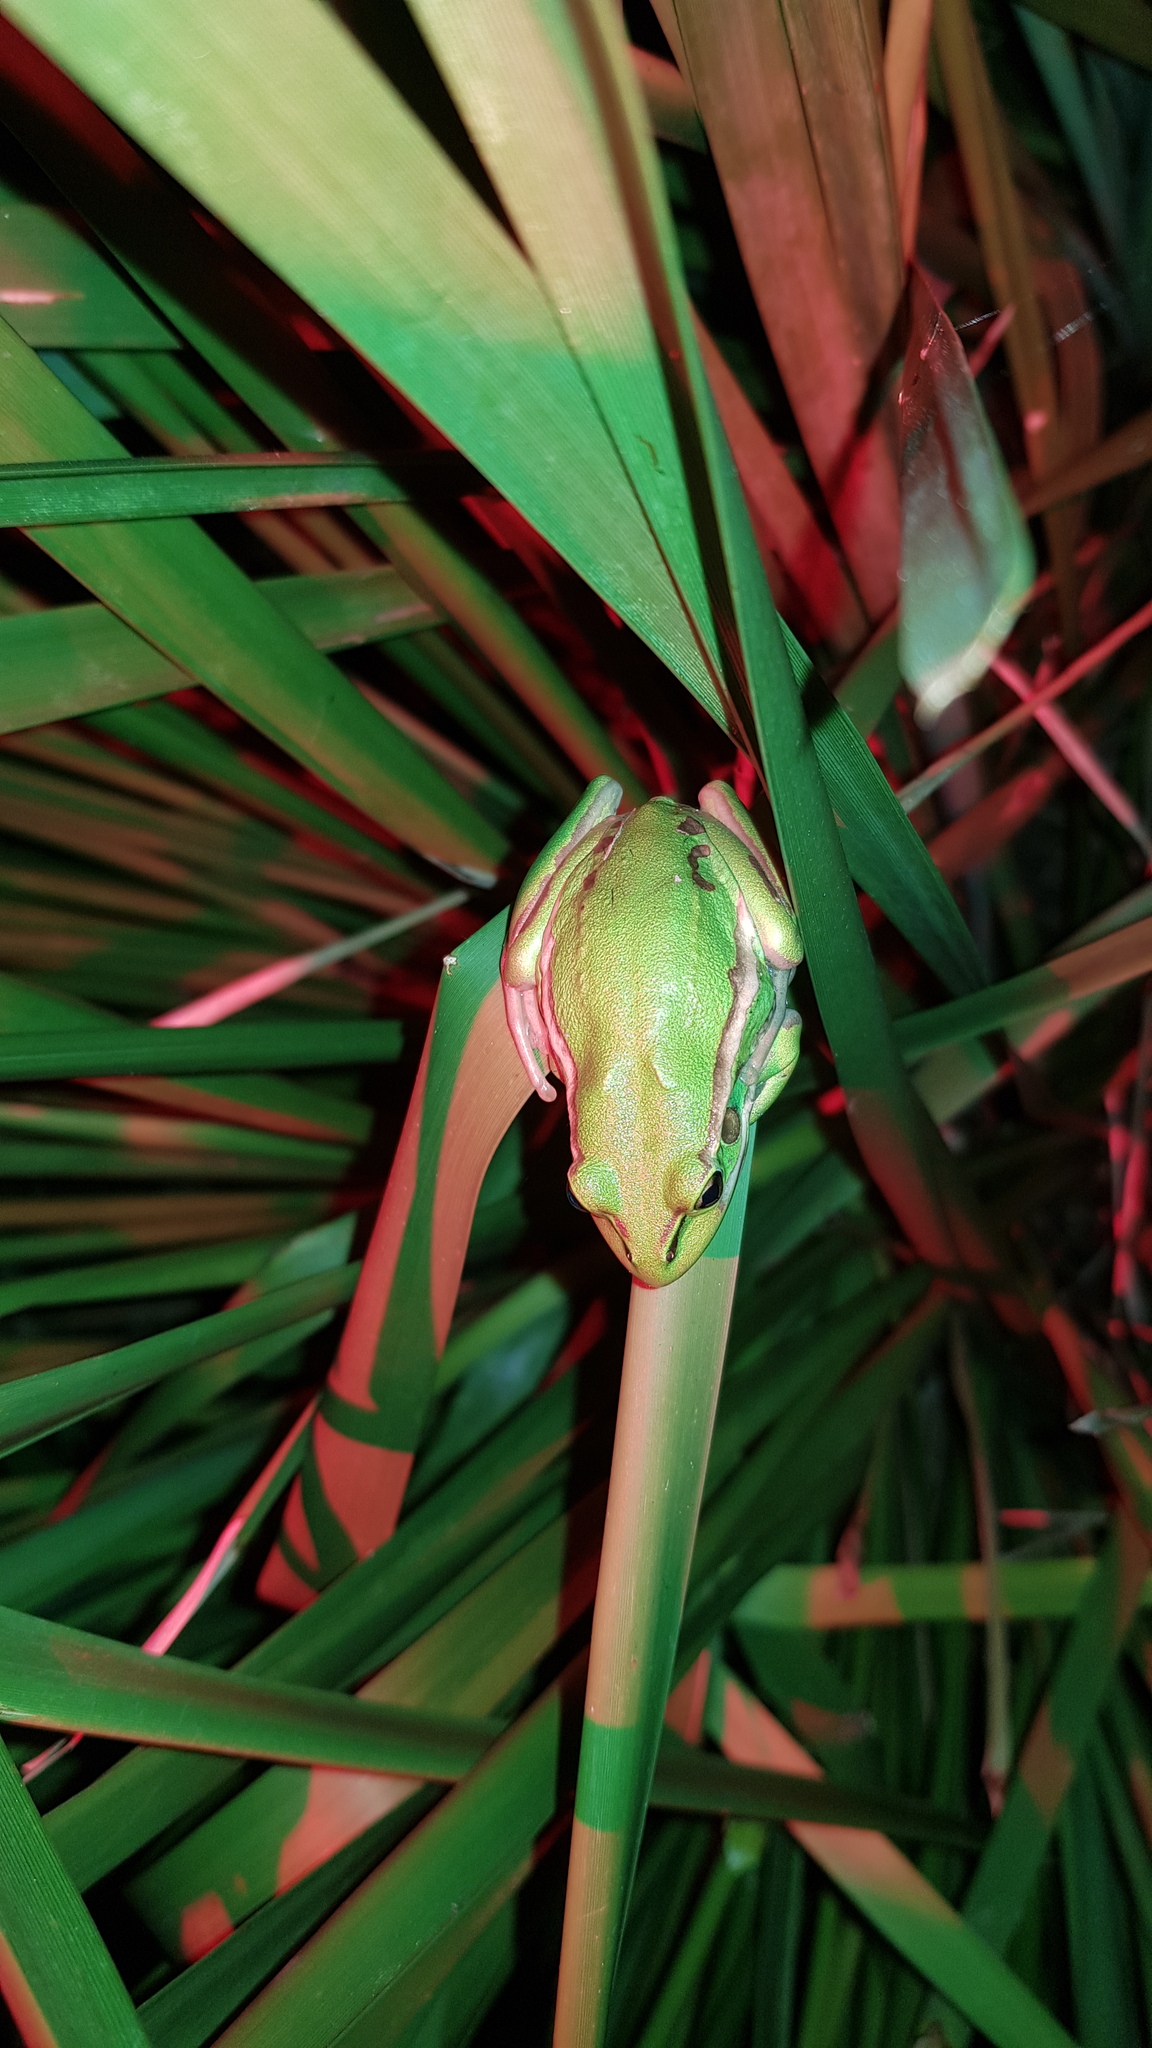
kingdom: Animalia
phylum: Chordata
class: Amphibia
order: Anura
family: Pelodryadidae
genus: Ranoidea
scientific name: Ranoidea aurea
